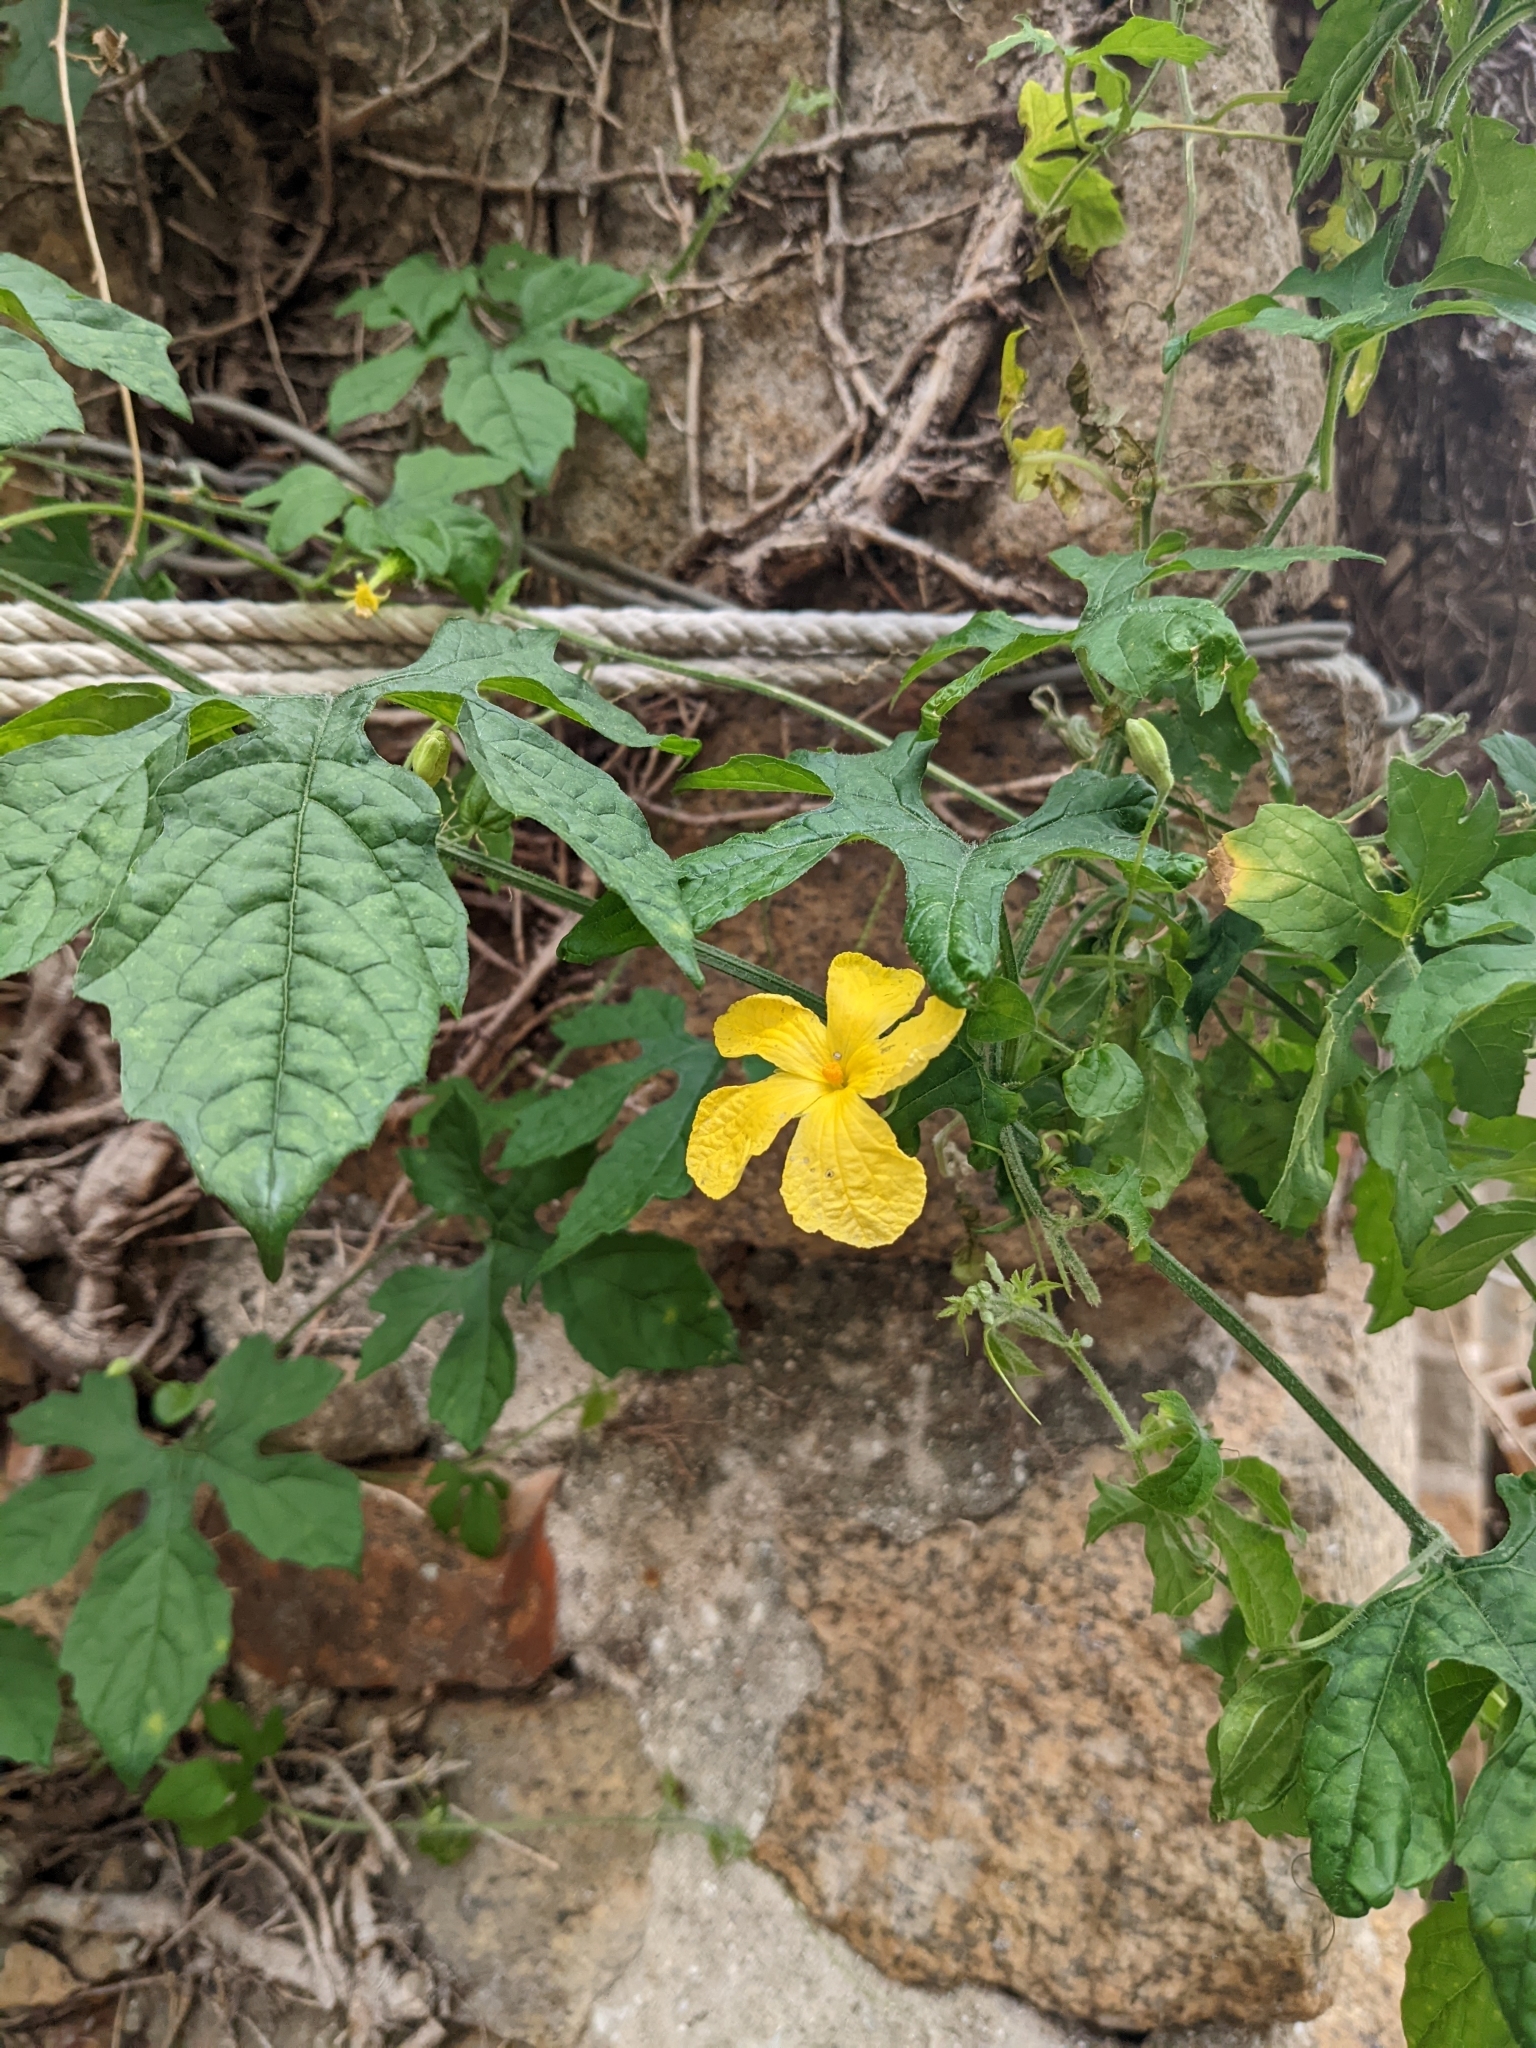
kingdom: Plantae
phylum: Tracheophyta
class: Magnoliopsida
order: Cucurbitales
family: Cucurbitaceae
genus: Momordica
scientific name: Momordica charantia
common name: Balsampear
